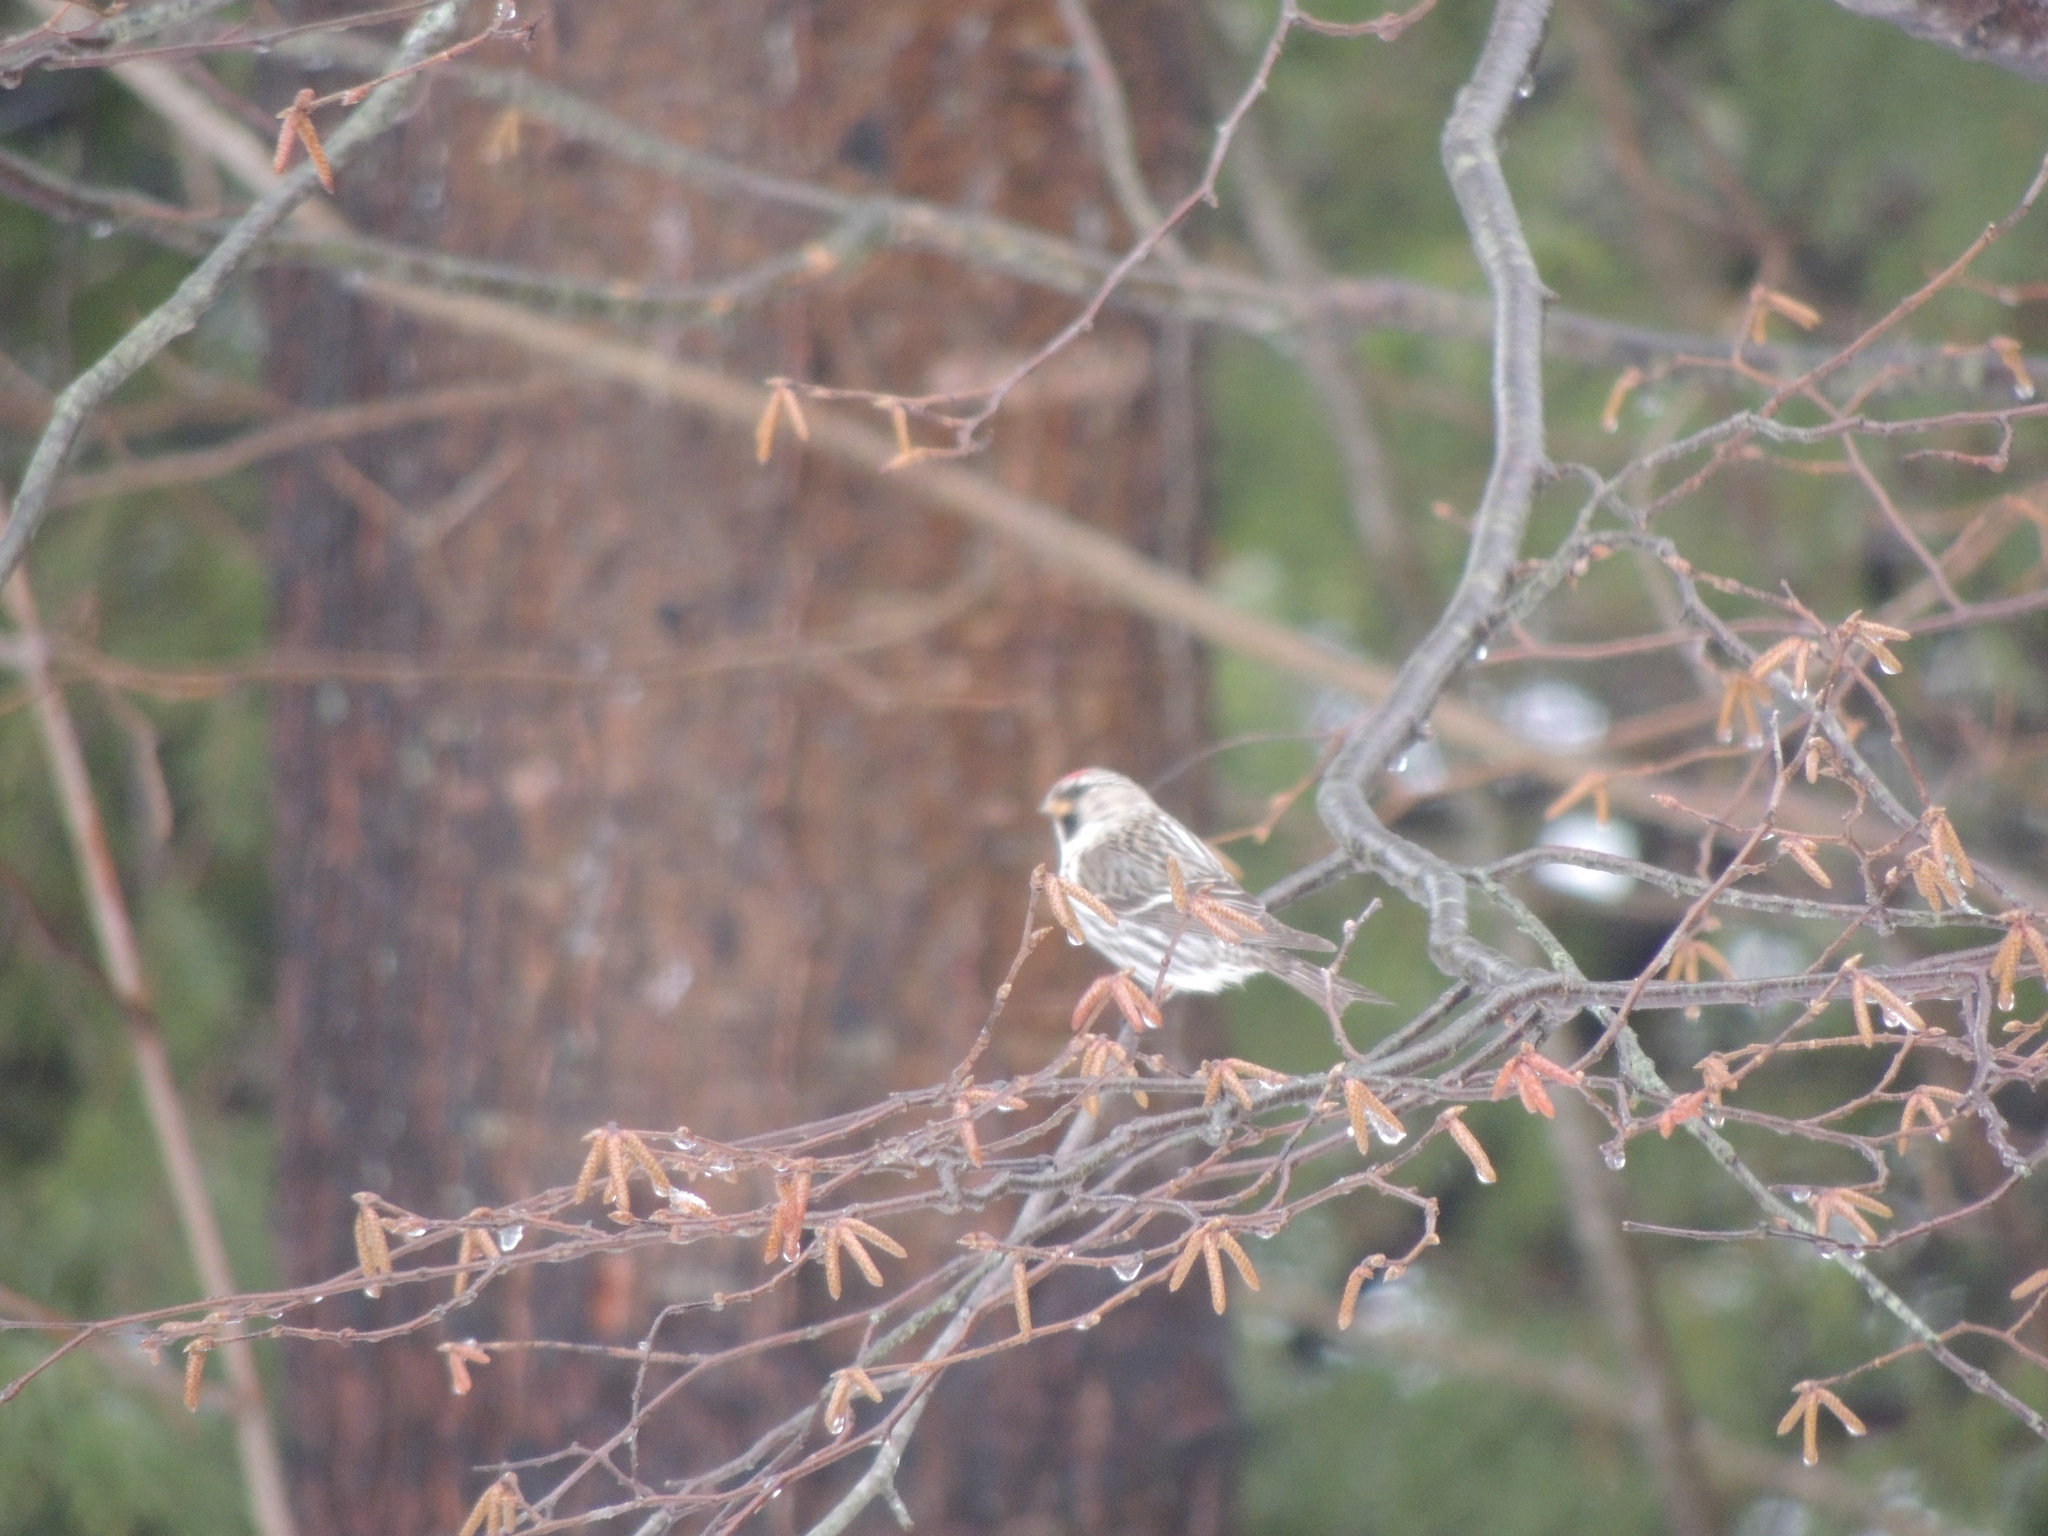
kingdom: Animalia
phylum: Chordata
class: Aves
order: Passeriformes
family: Fringillidae
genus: Acanthis
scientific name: Acanthis flammea
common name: Common redpoll
